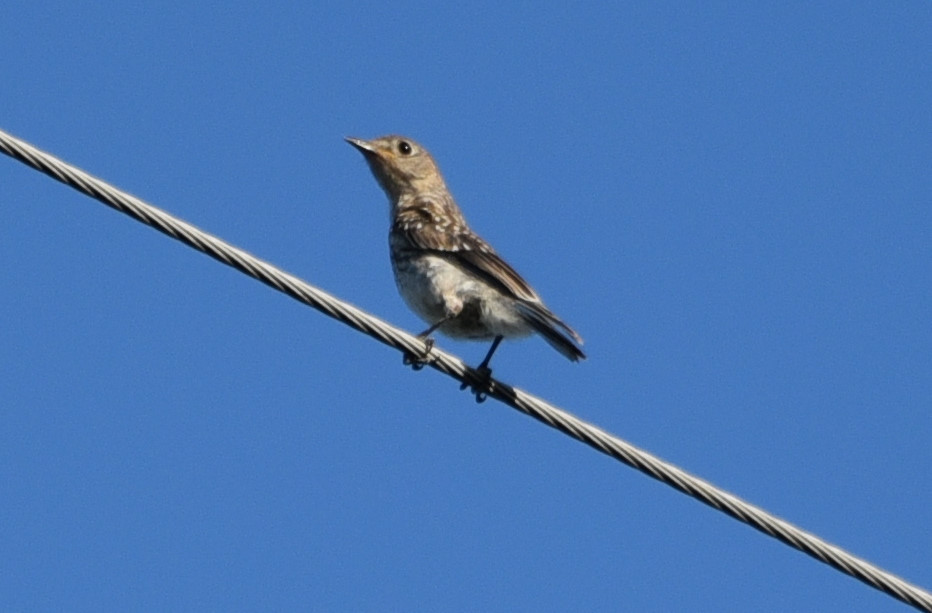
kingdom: Animalia
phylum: Chordata
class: Aves
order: Passeriformes
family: Turdidae
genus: Sialia
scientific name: Sialia sialis
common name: Eastern bluebird
